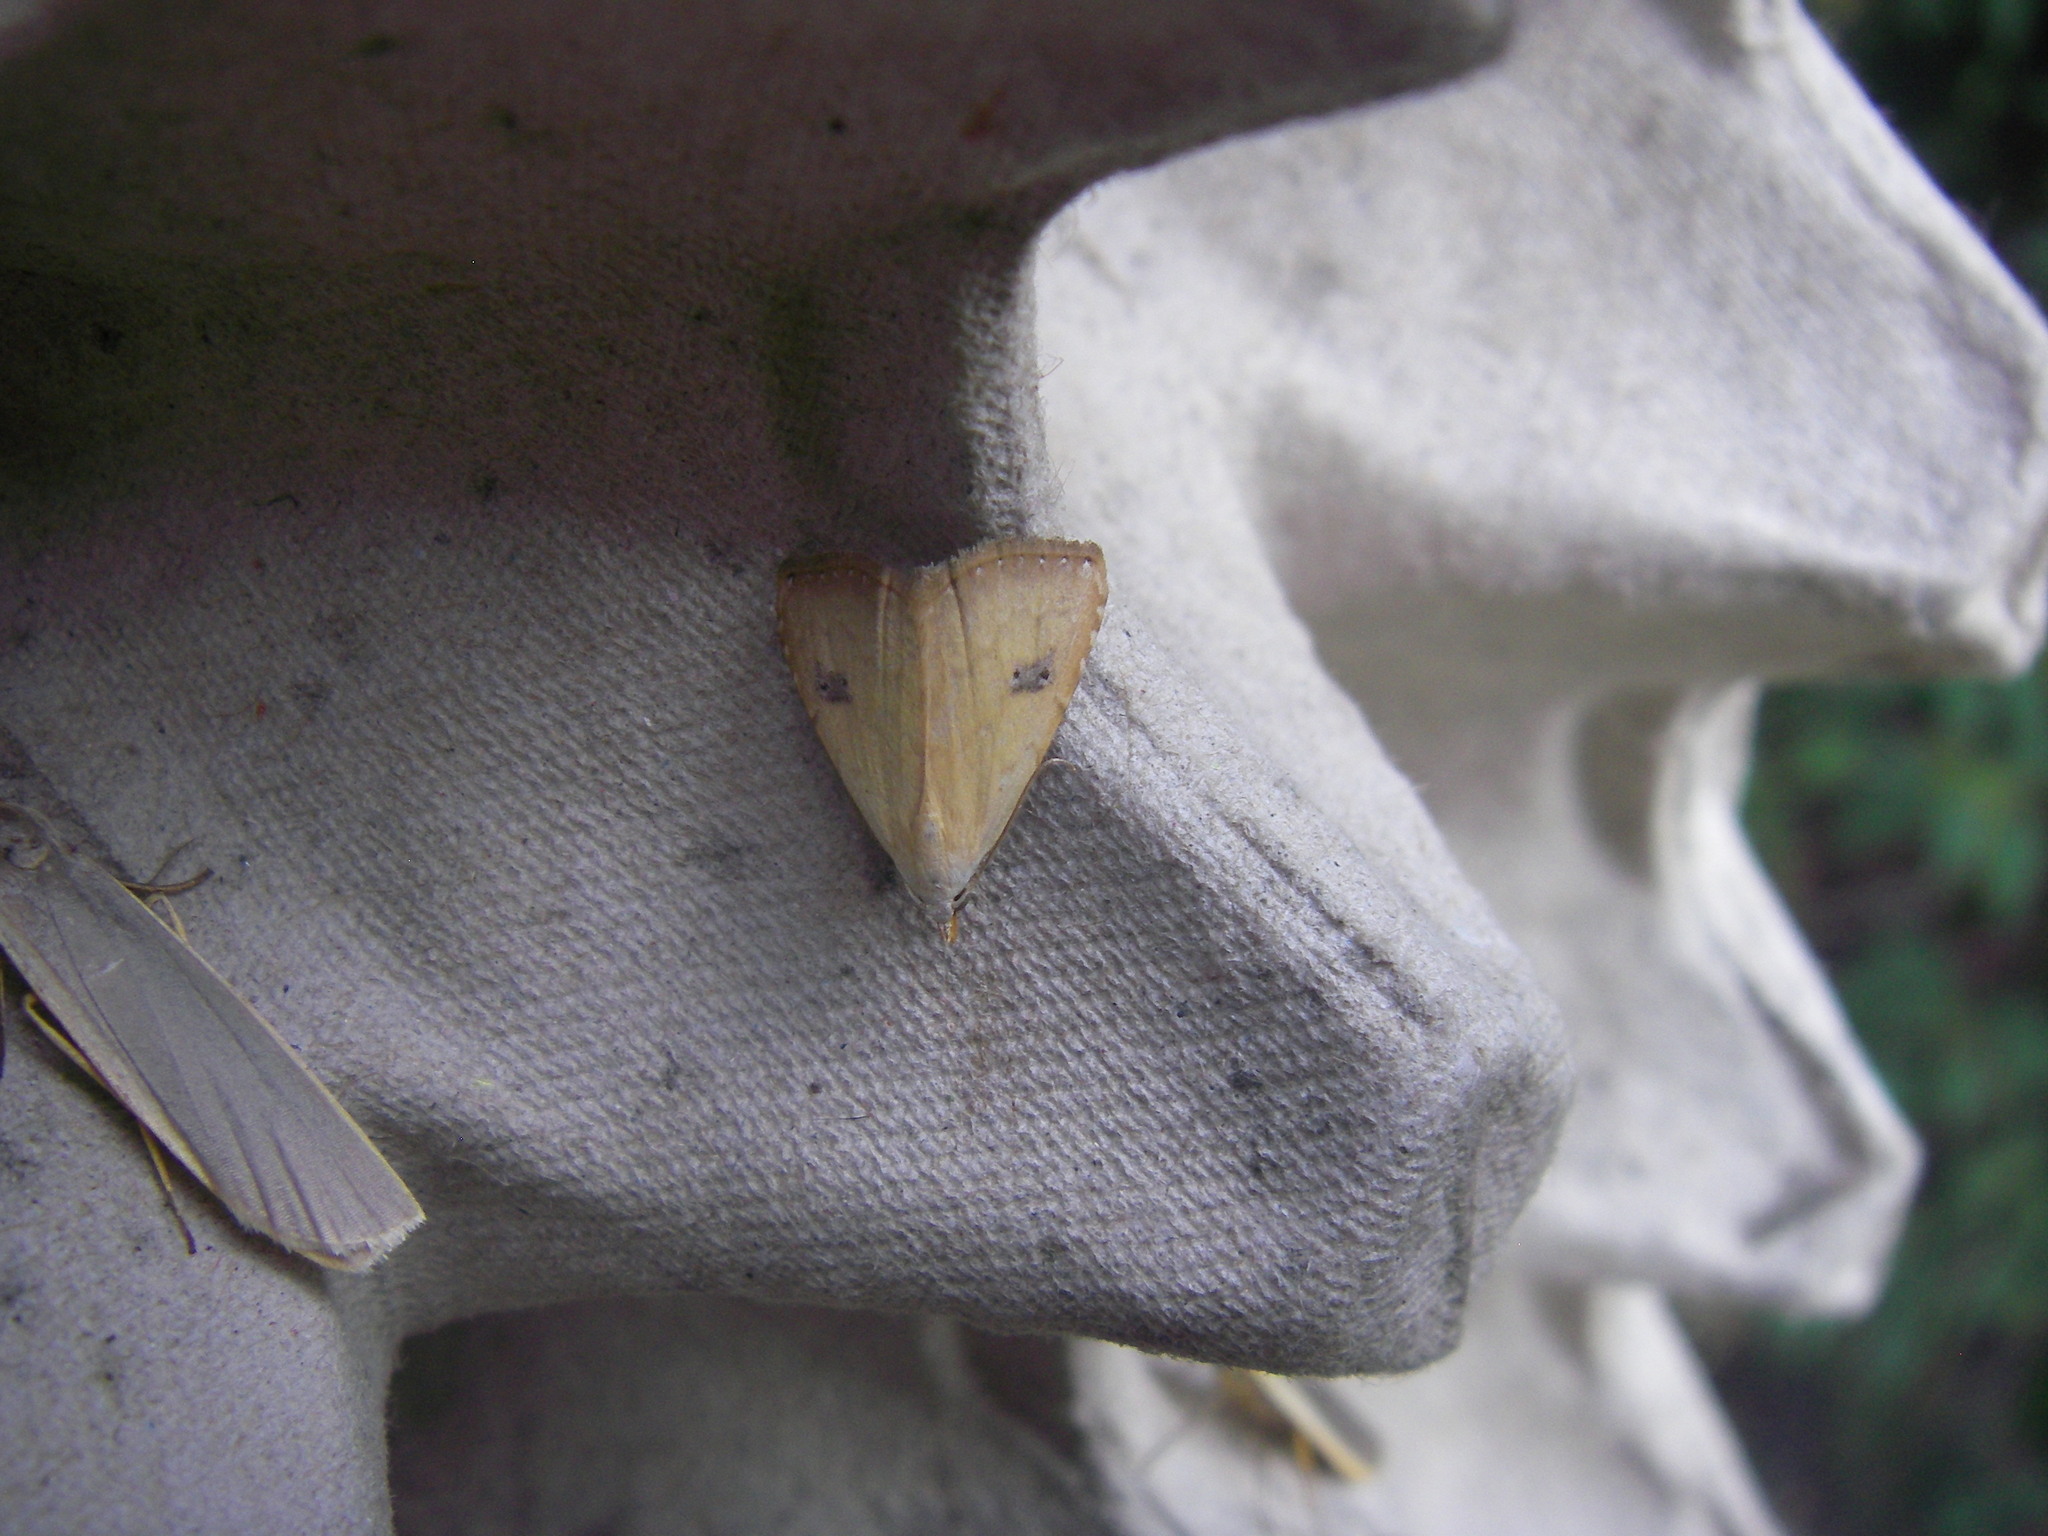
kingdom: Animalia
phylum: Arthropoda
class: Insecta
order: Lepidoptera
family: Erebidae
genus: Rivula
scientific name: Rivula sericealis
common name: Straw dot
